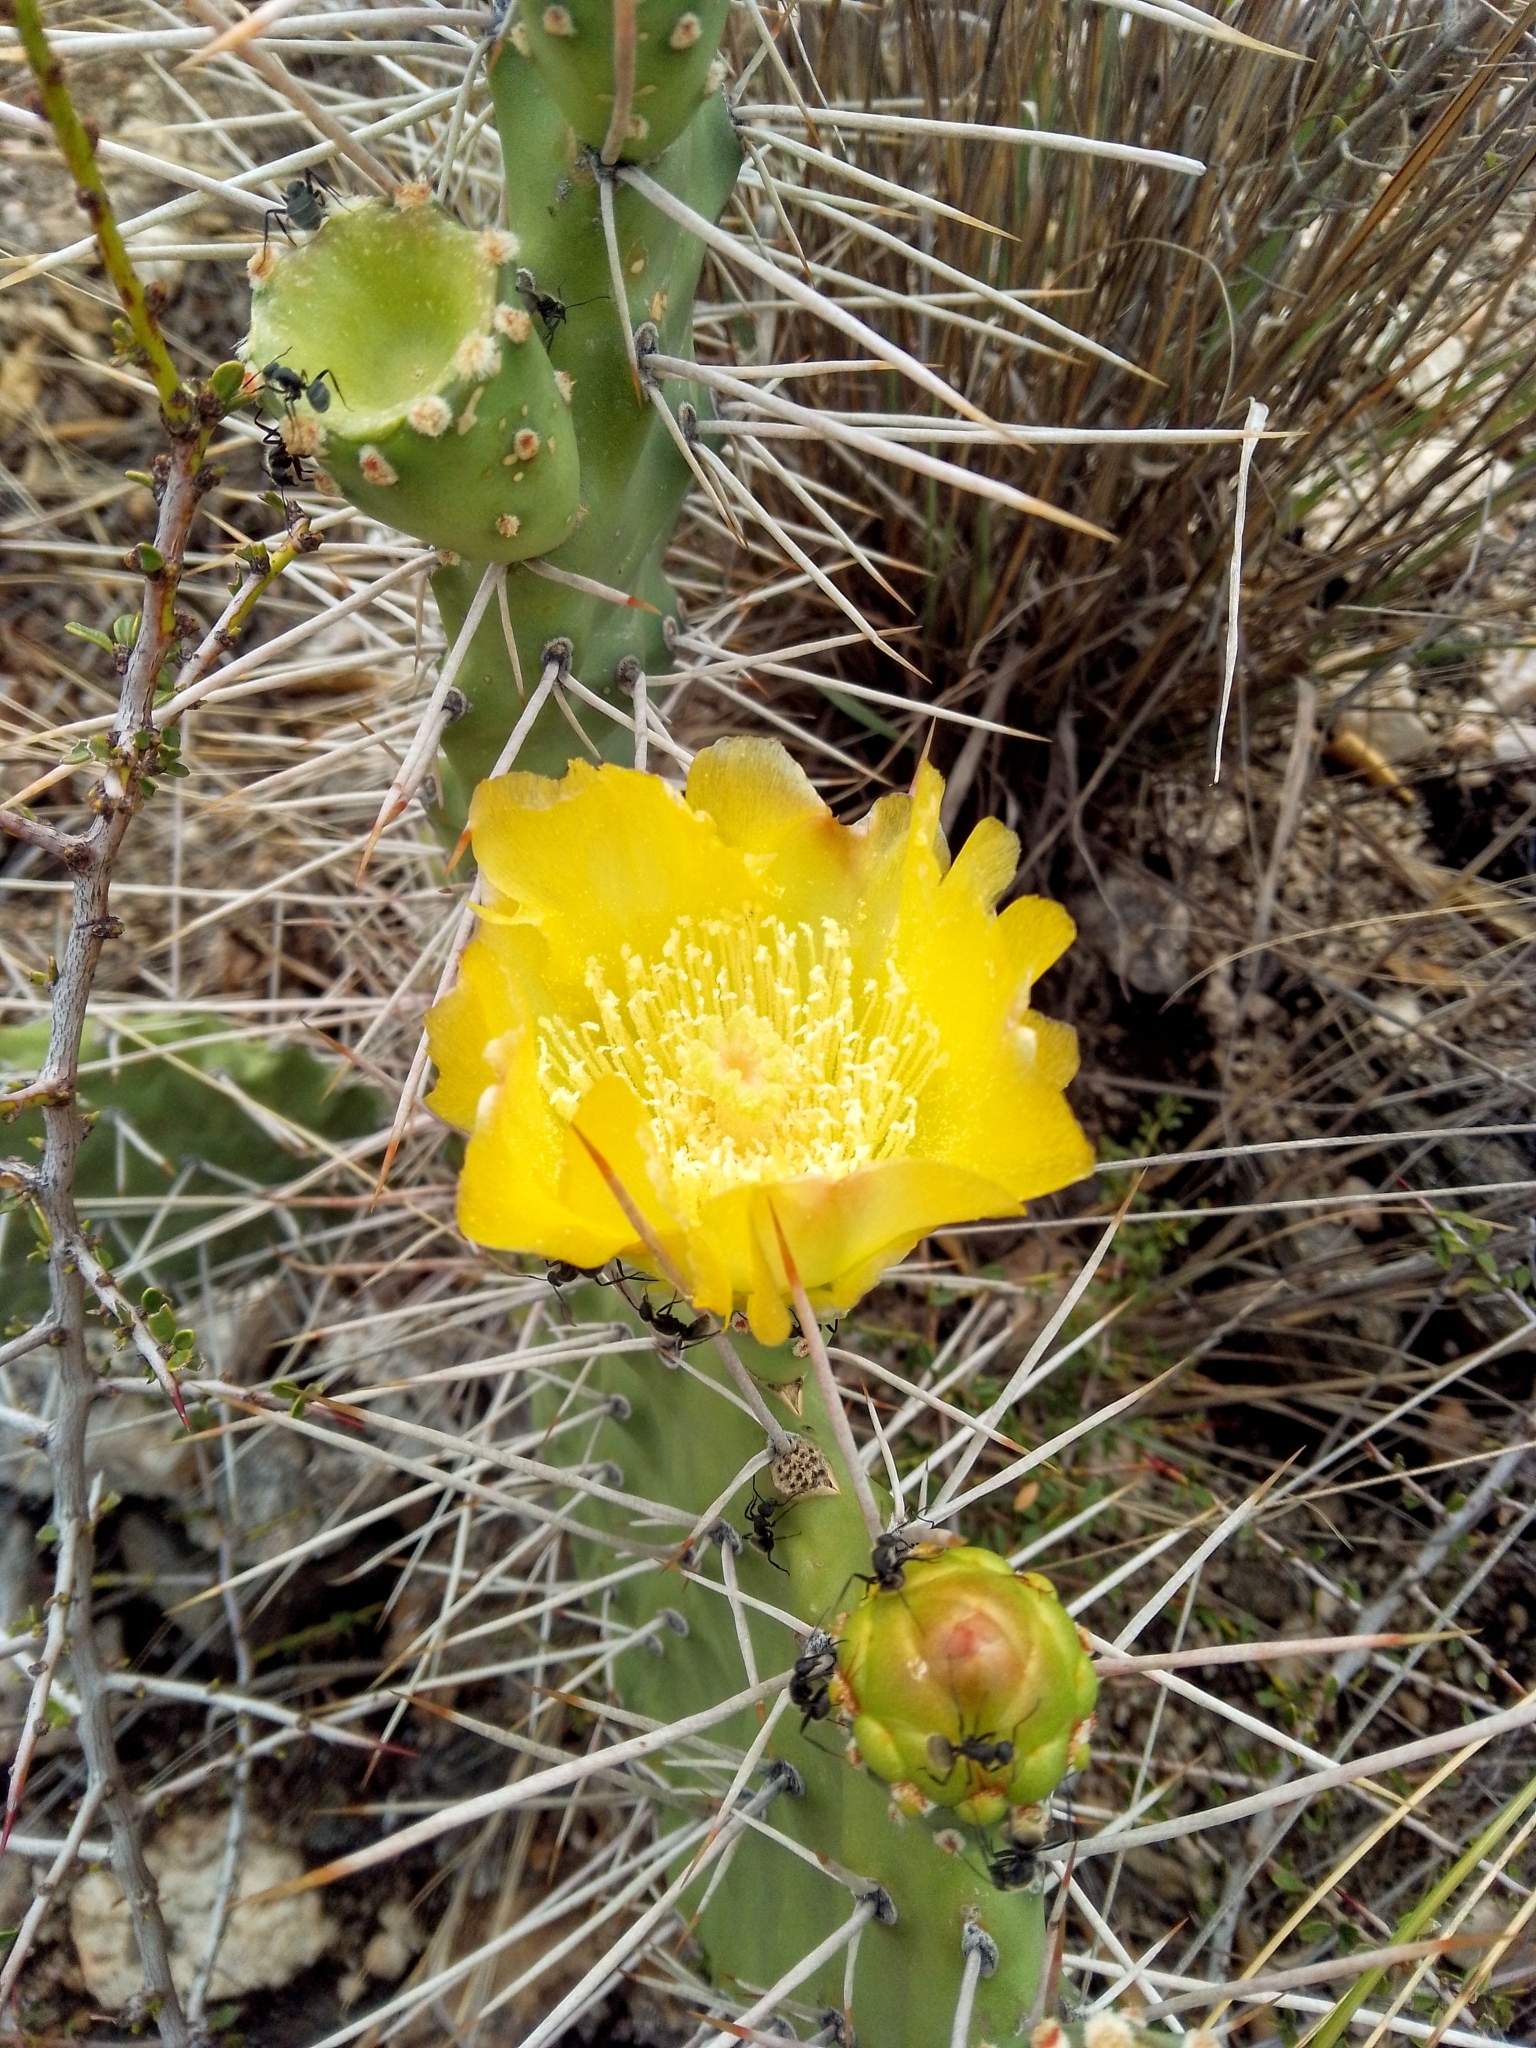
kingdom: Plantae
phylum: Tracheophyta
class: Magnoliopsida
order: Caryophyllales
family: Cactaceae
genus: Opuntia
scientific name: Opuntia sulphurea
